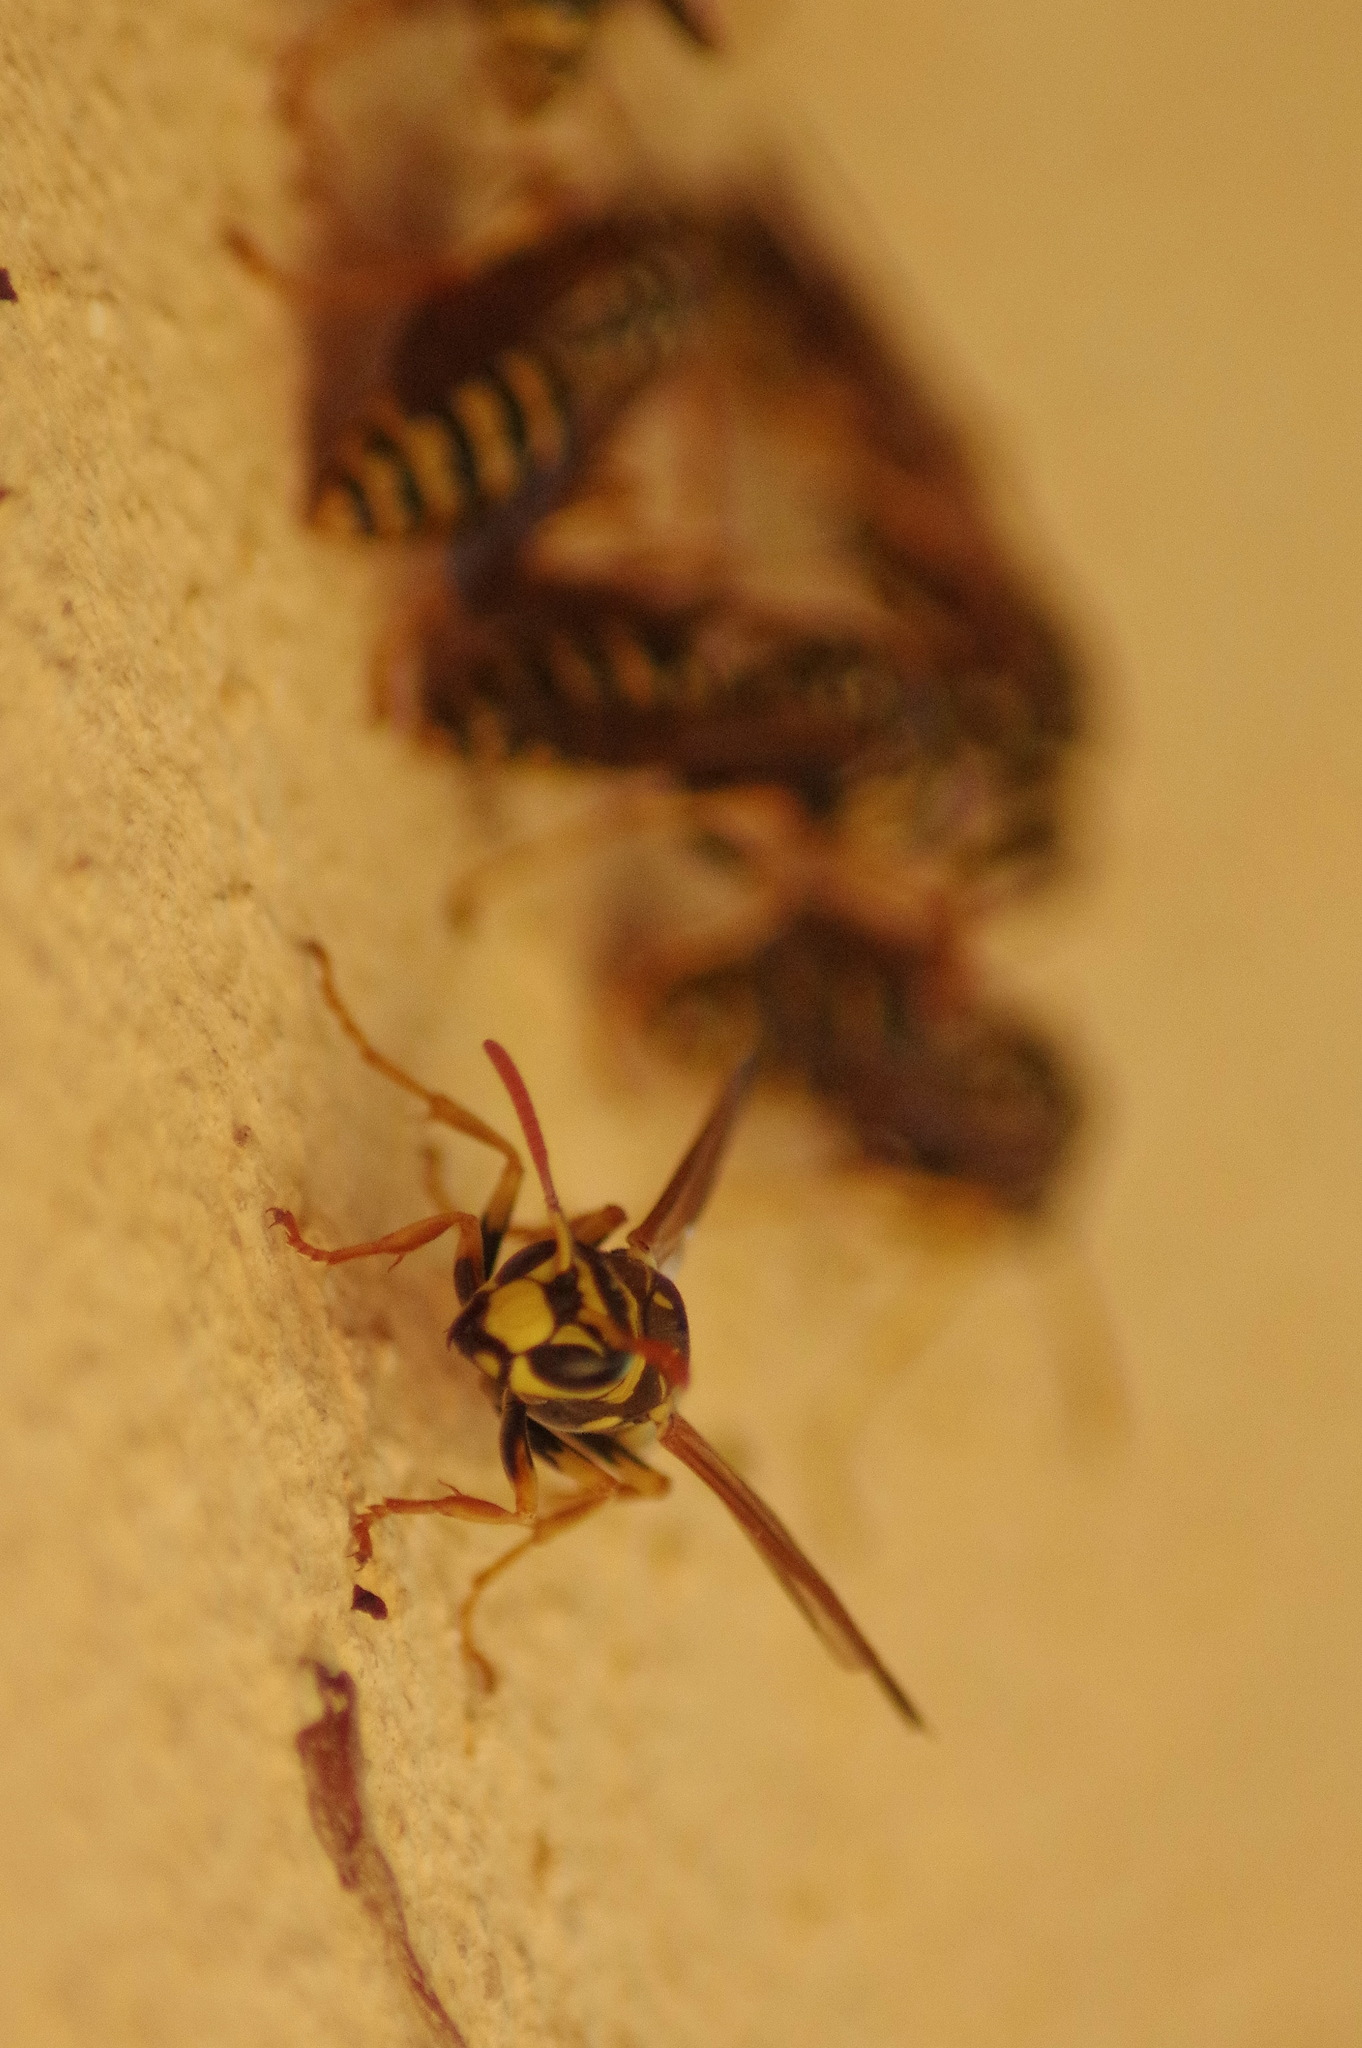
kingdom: Animalia
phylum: Arthropoda
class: Insecta
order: Hymenoptera
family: Eumenidae
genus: Polistes
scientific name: Polistes dominula
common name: Paper wasp
